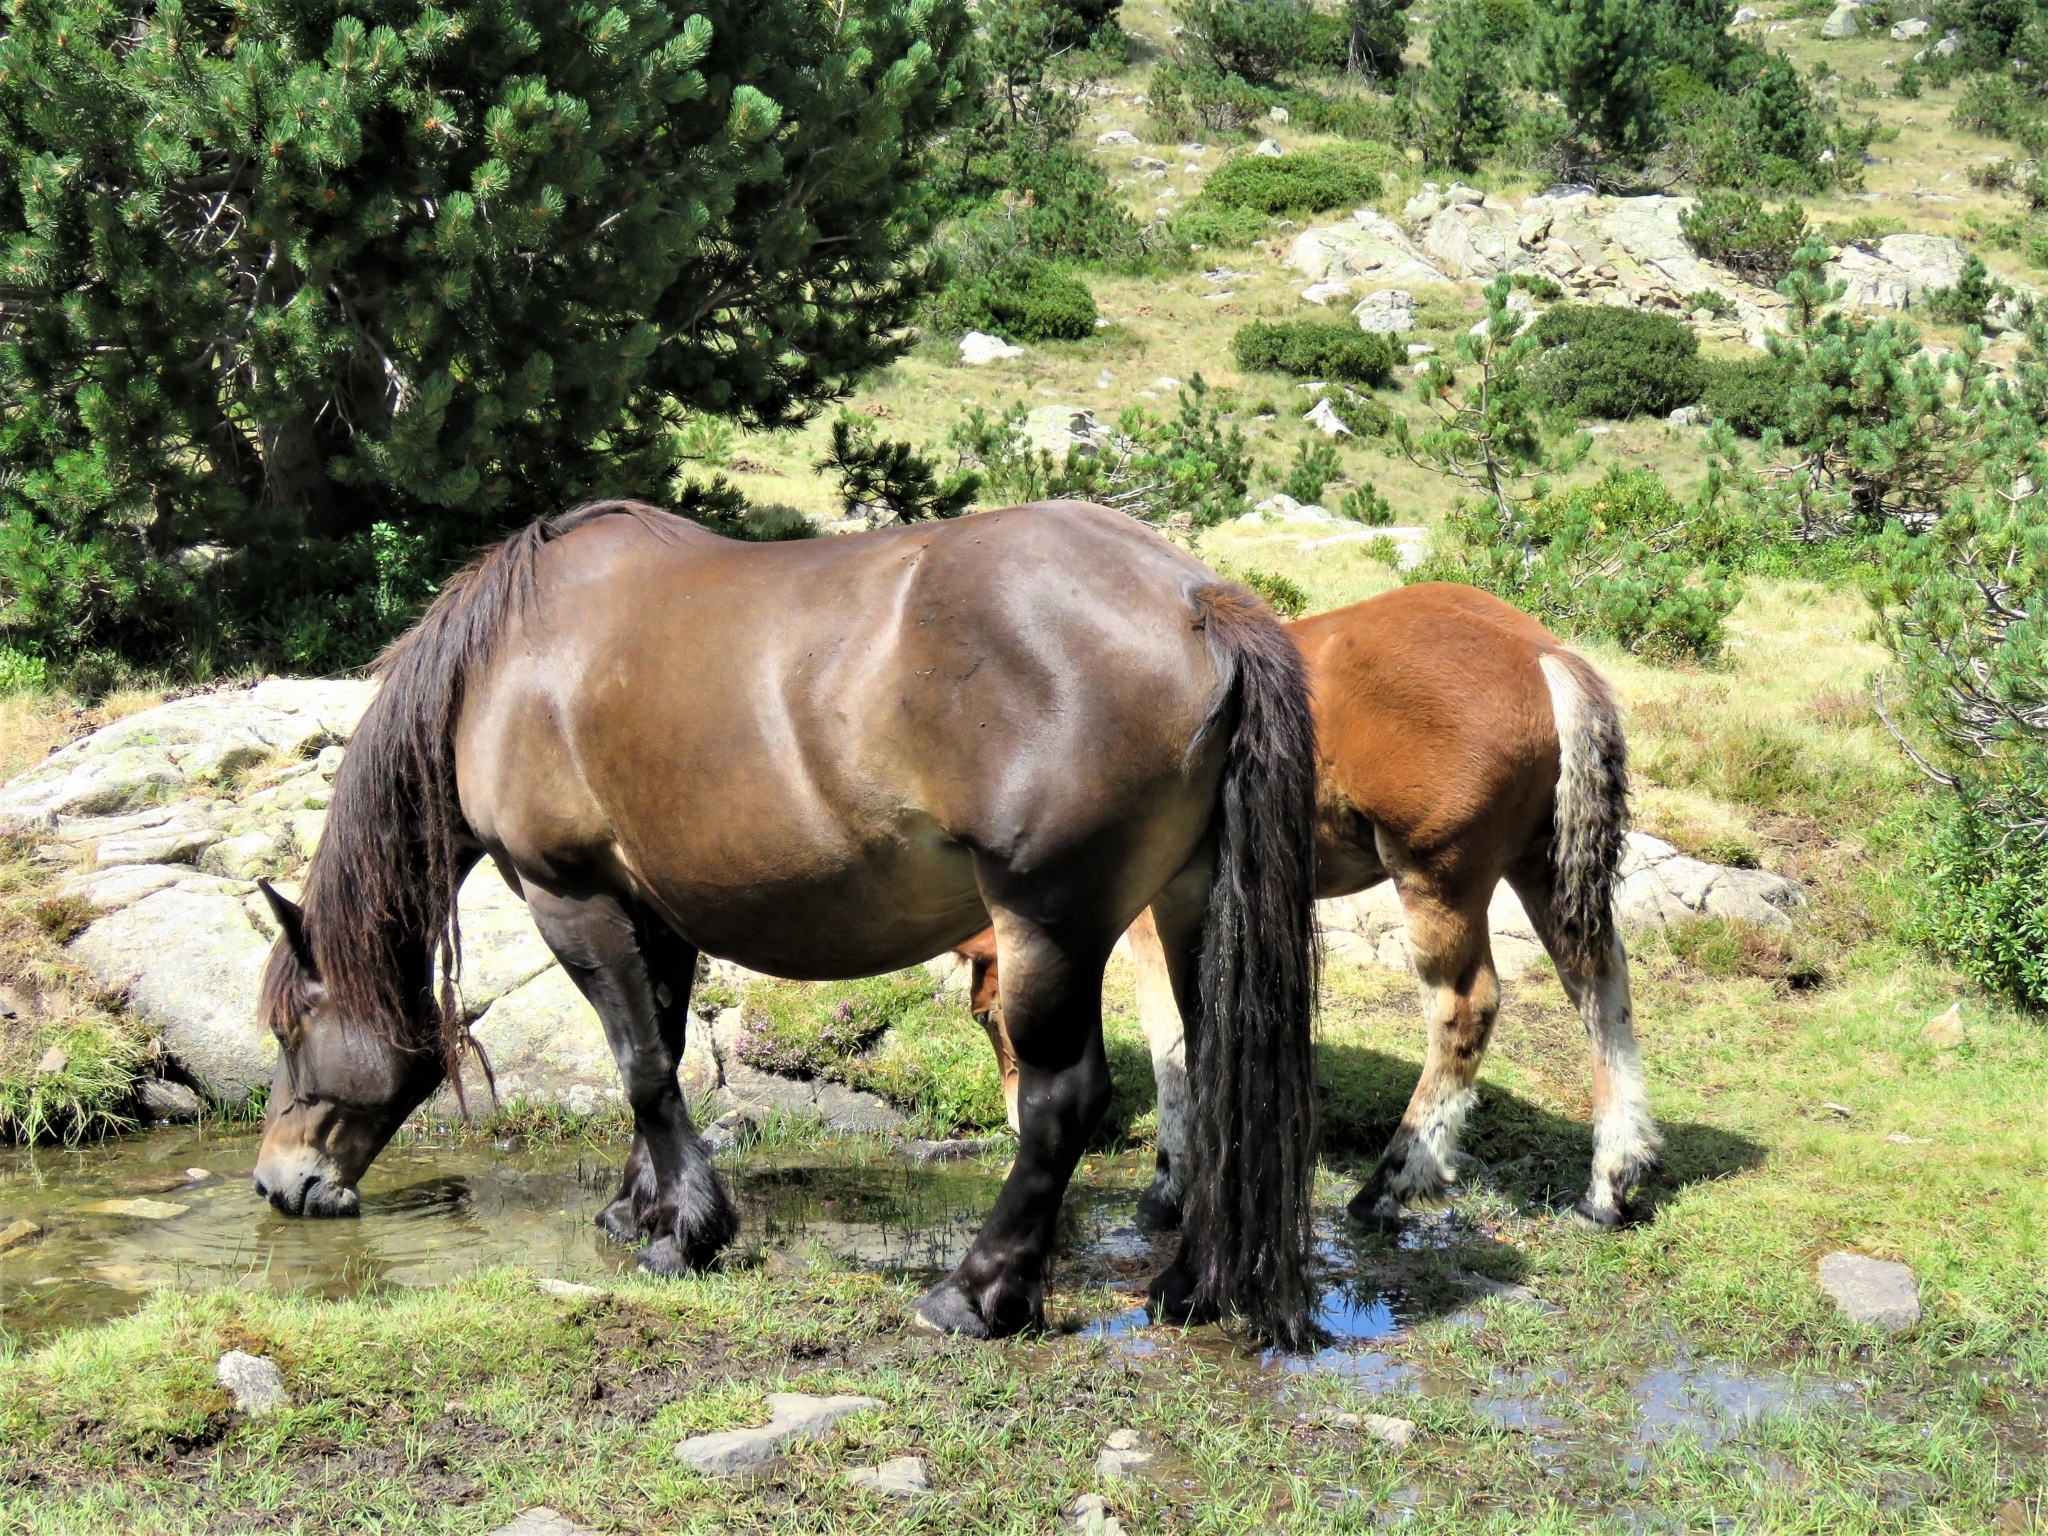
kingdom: Animalia
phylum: Chordata
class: Mammalia
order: Perissodactyla
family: Equidae
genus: Equus
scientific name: Equus caballus
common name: Horse
